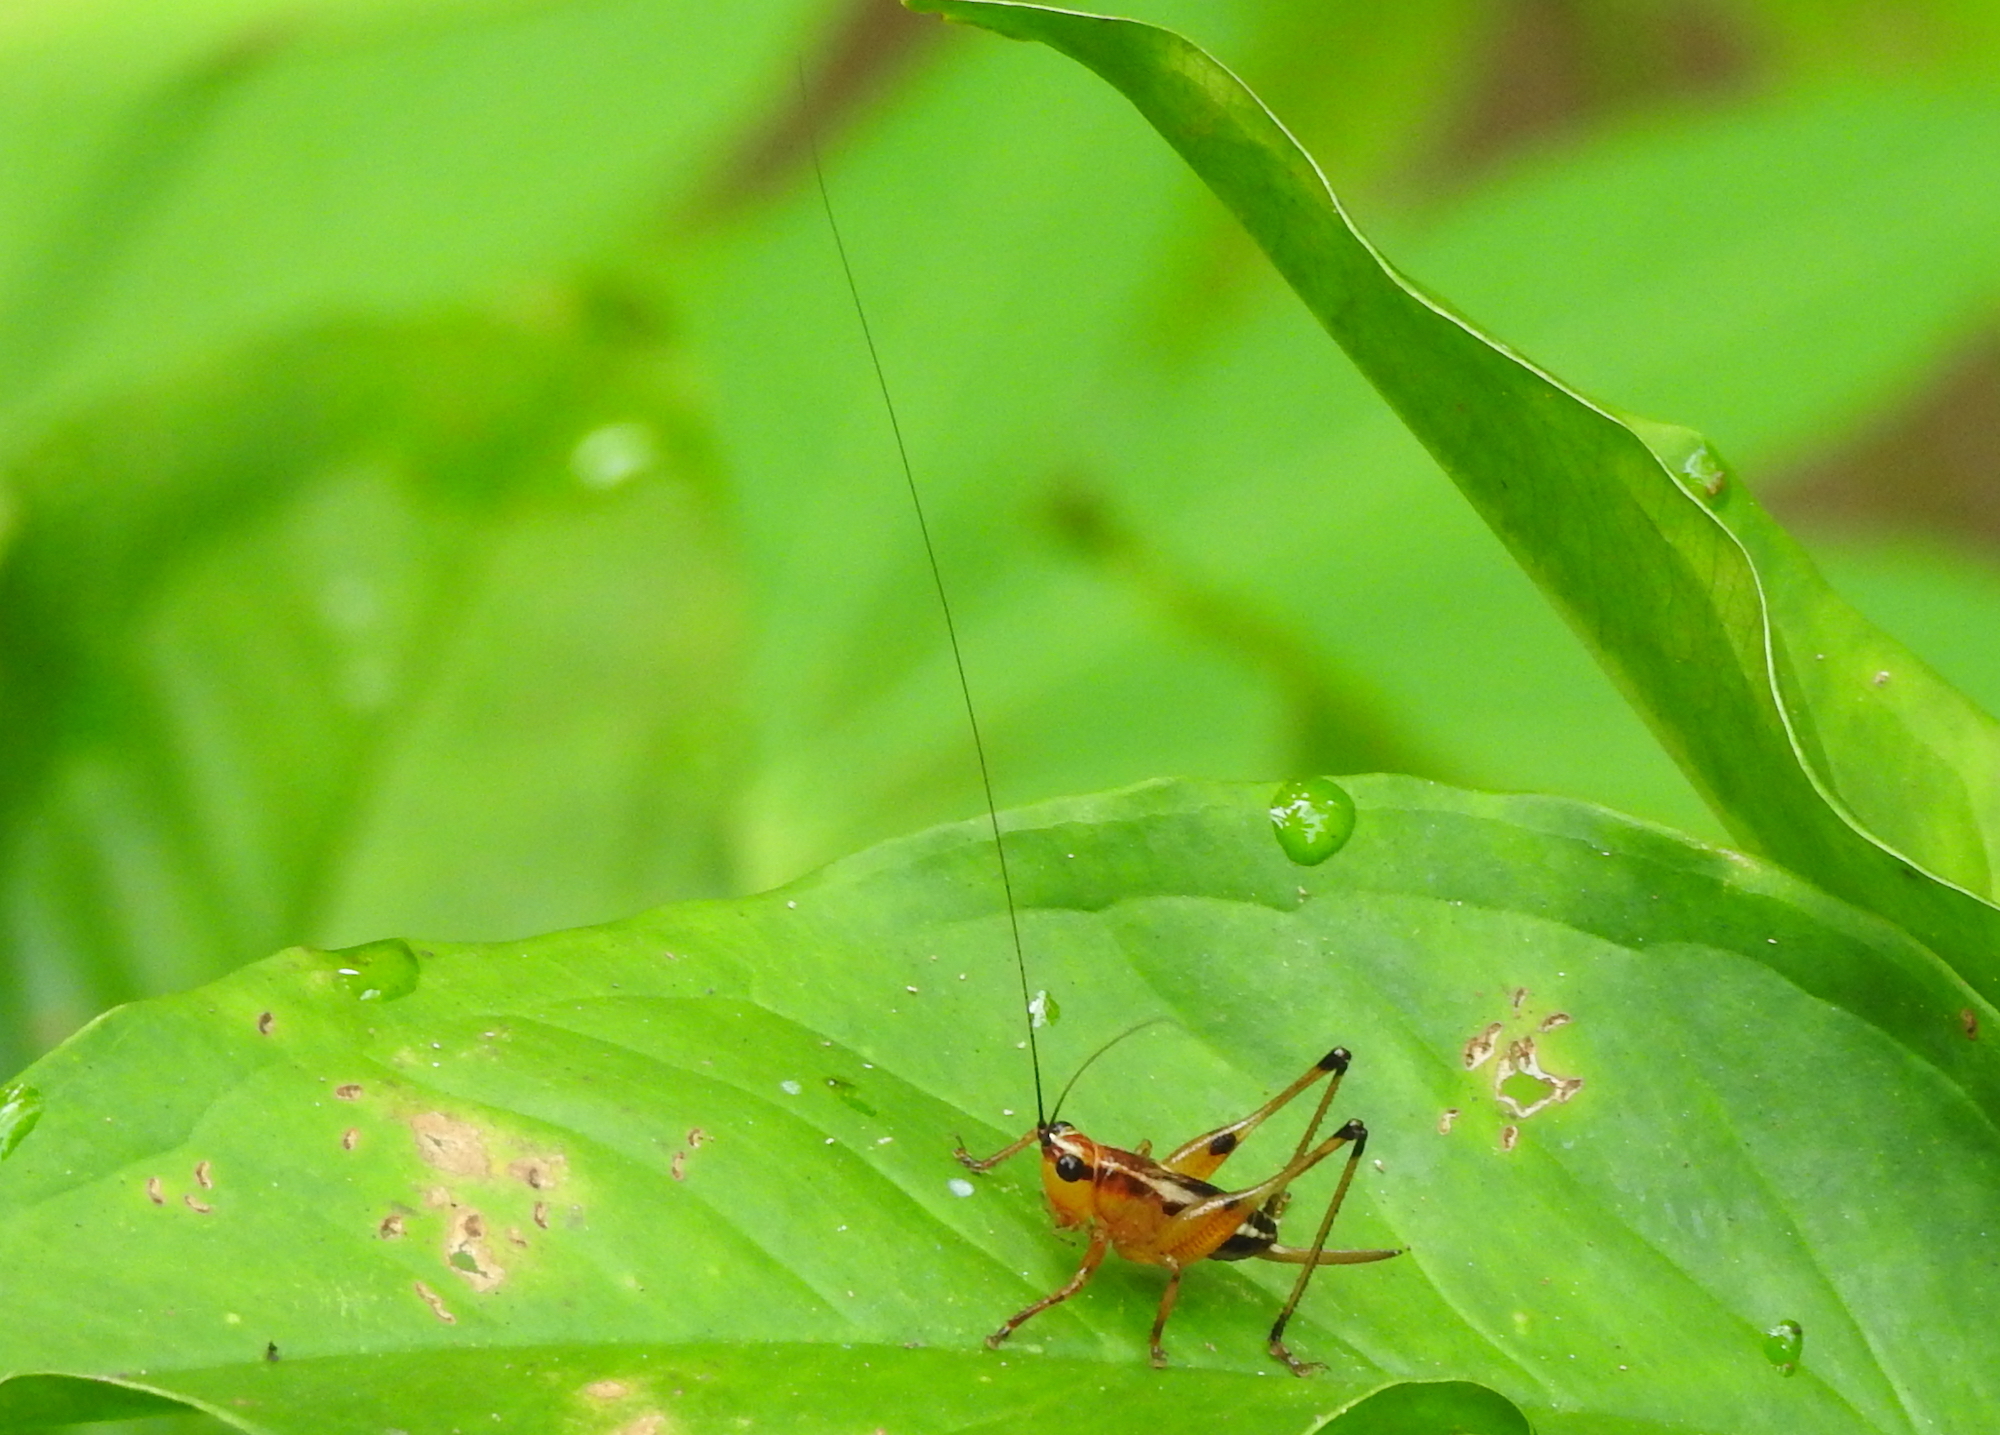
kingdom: Animalia
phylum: Arthropoda
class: Insecta
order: Orthoptera
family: Tettigoniidae
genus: Conocephalus
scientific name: Conocephalus melaenus
